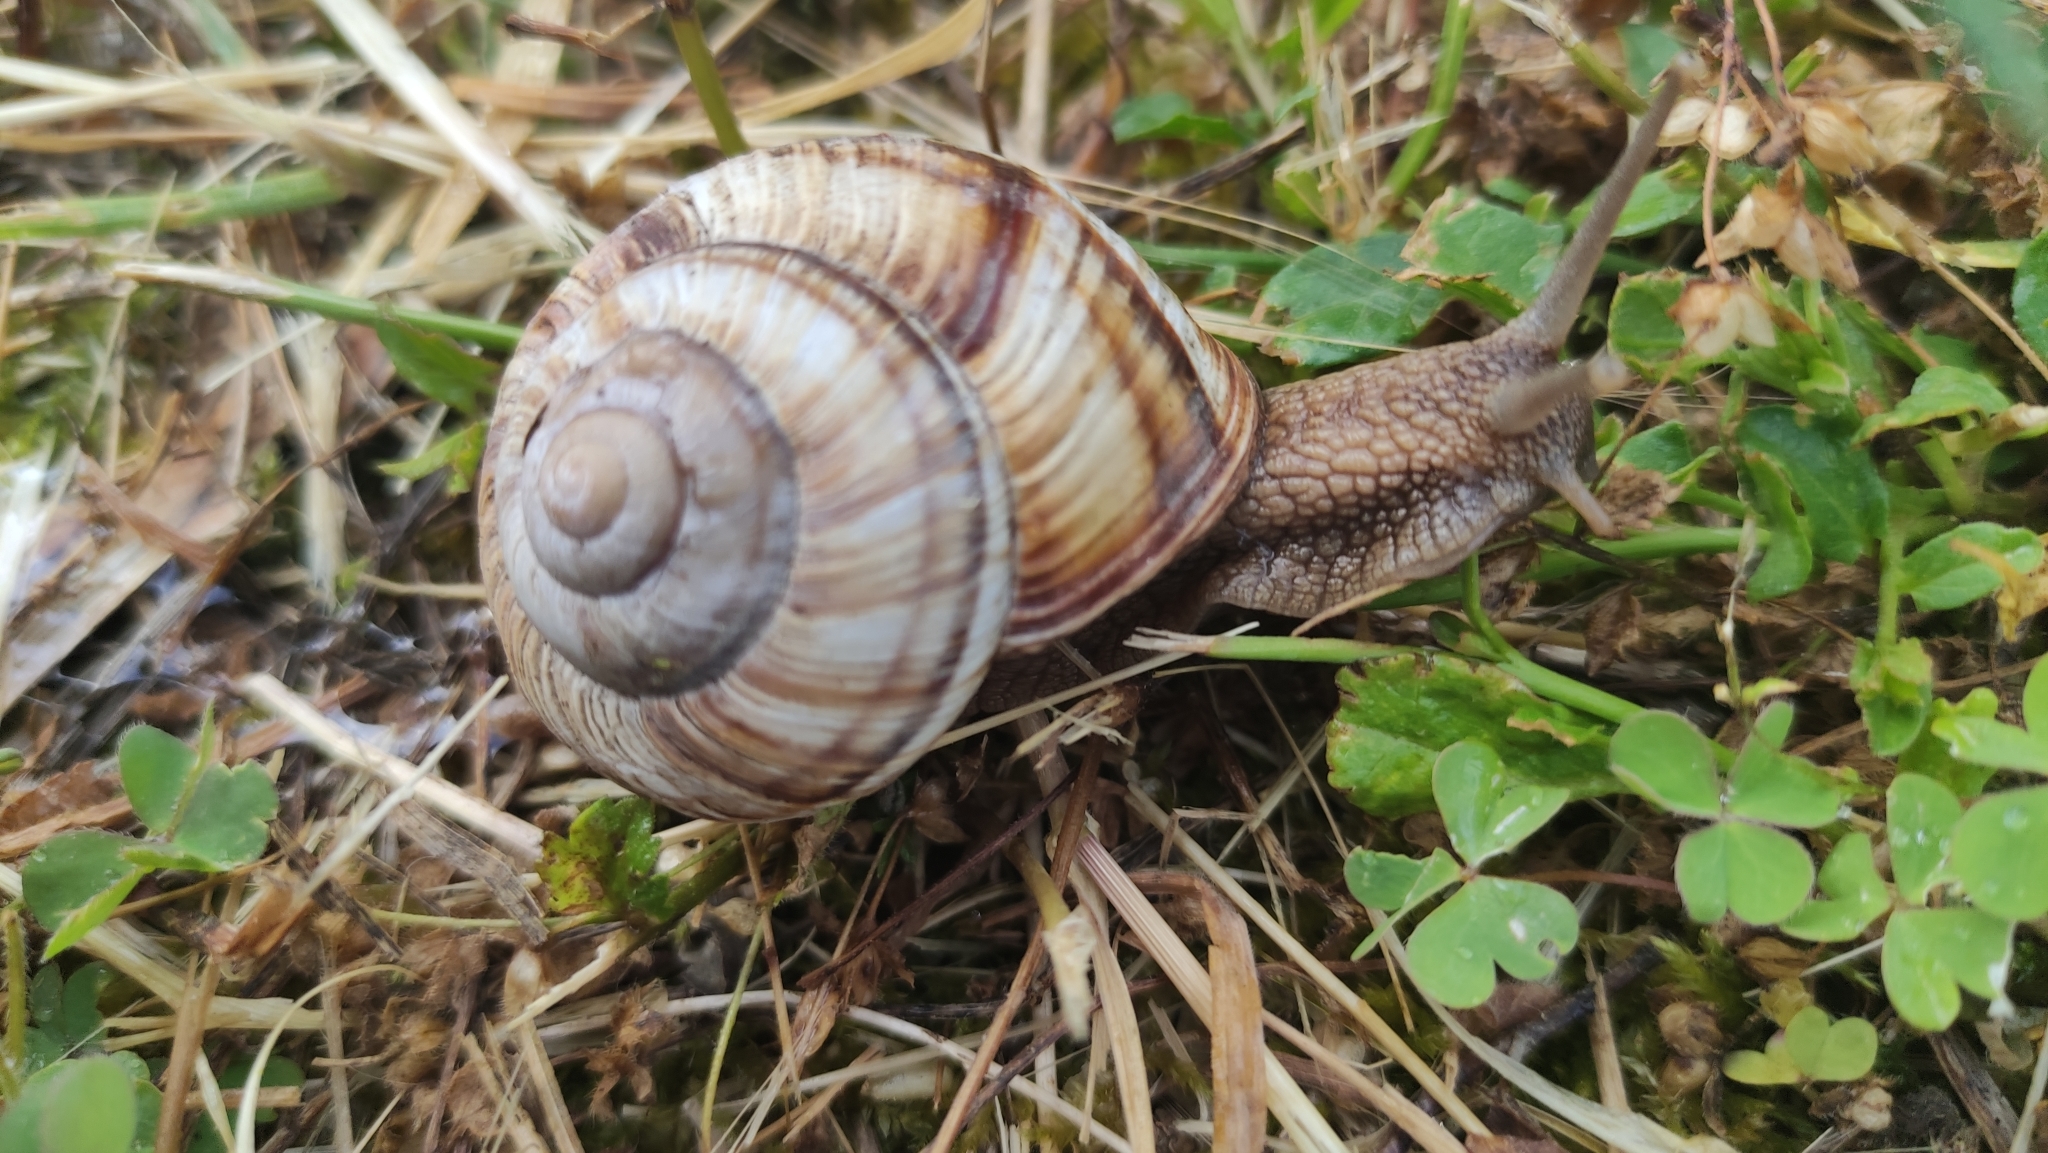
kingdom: Animalia
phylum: Mollusca
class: Gastropoda
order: Stylommatophora
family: Helicidae
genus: Helix
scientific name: Helix lucorum
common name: Turkish snail
